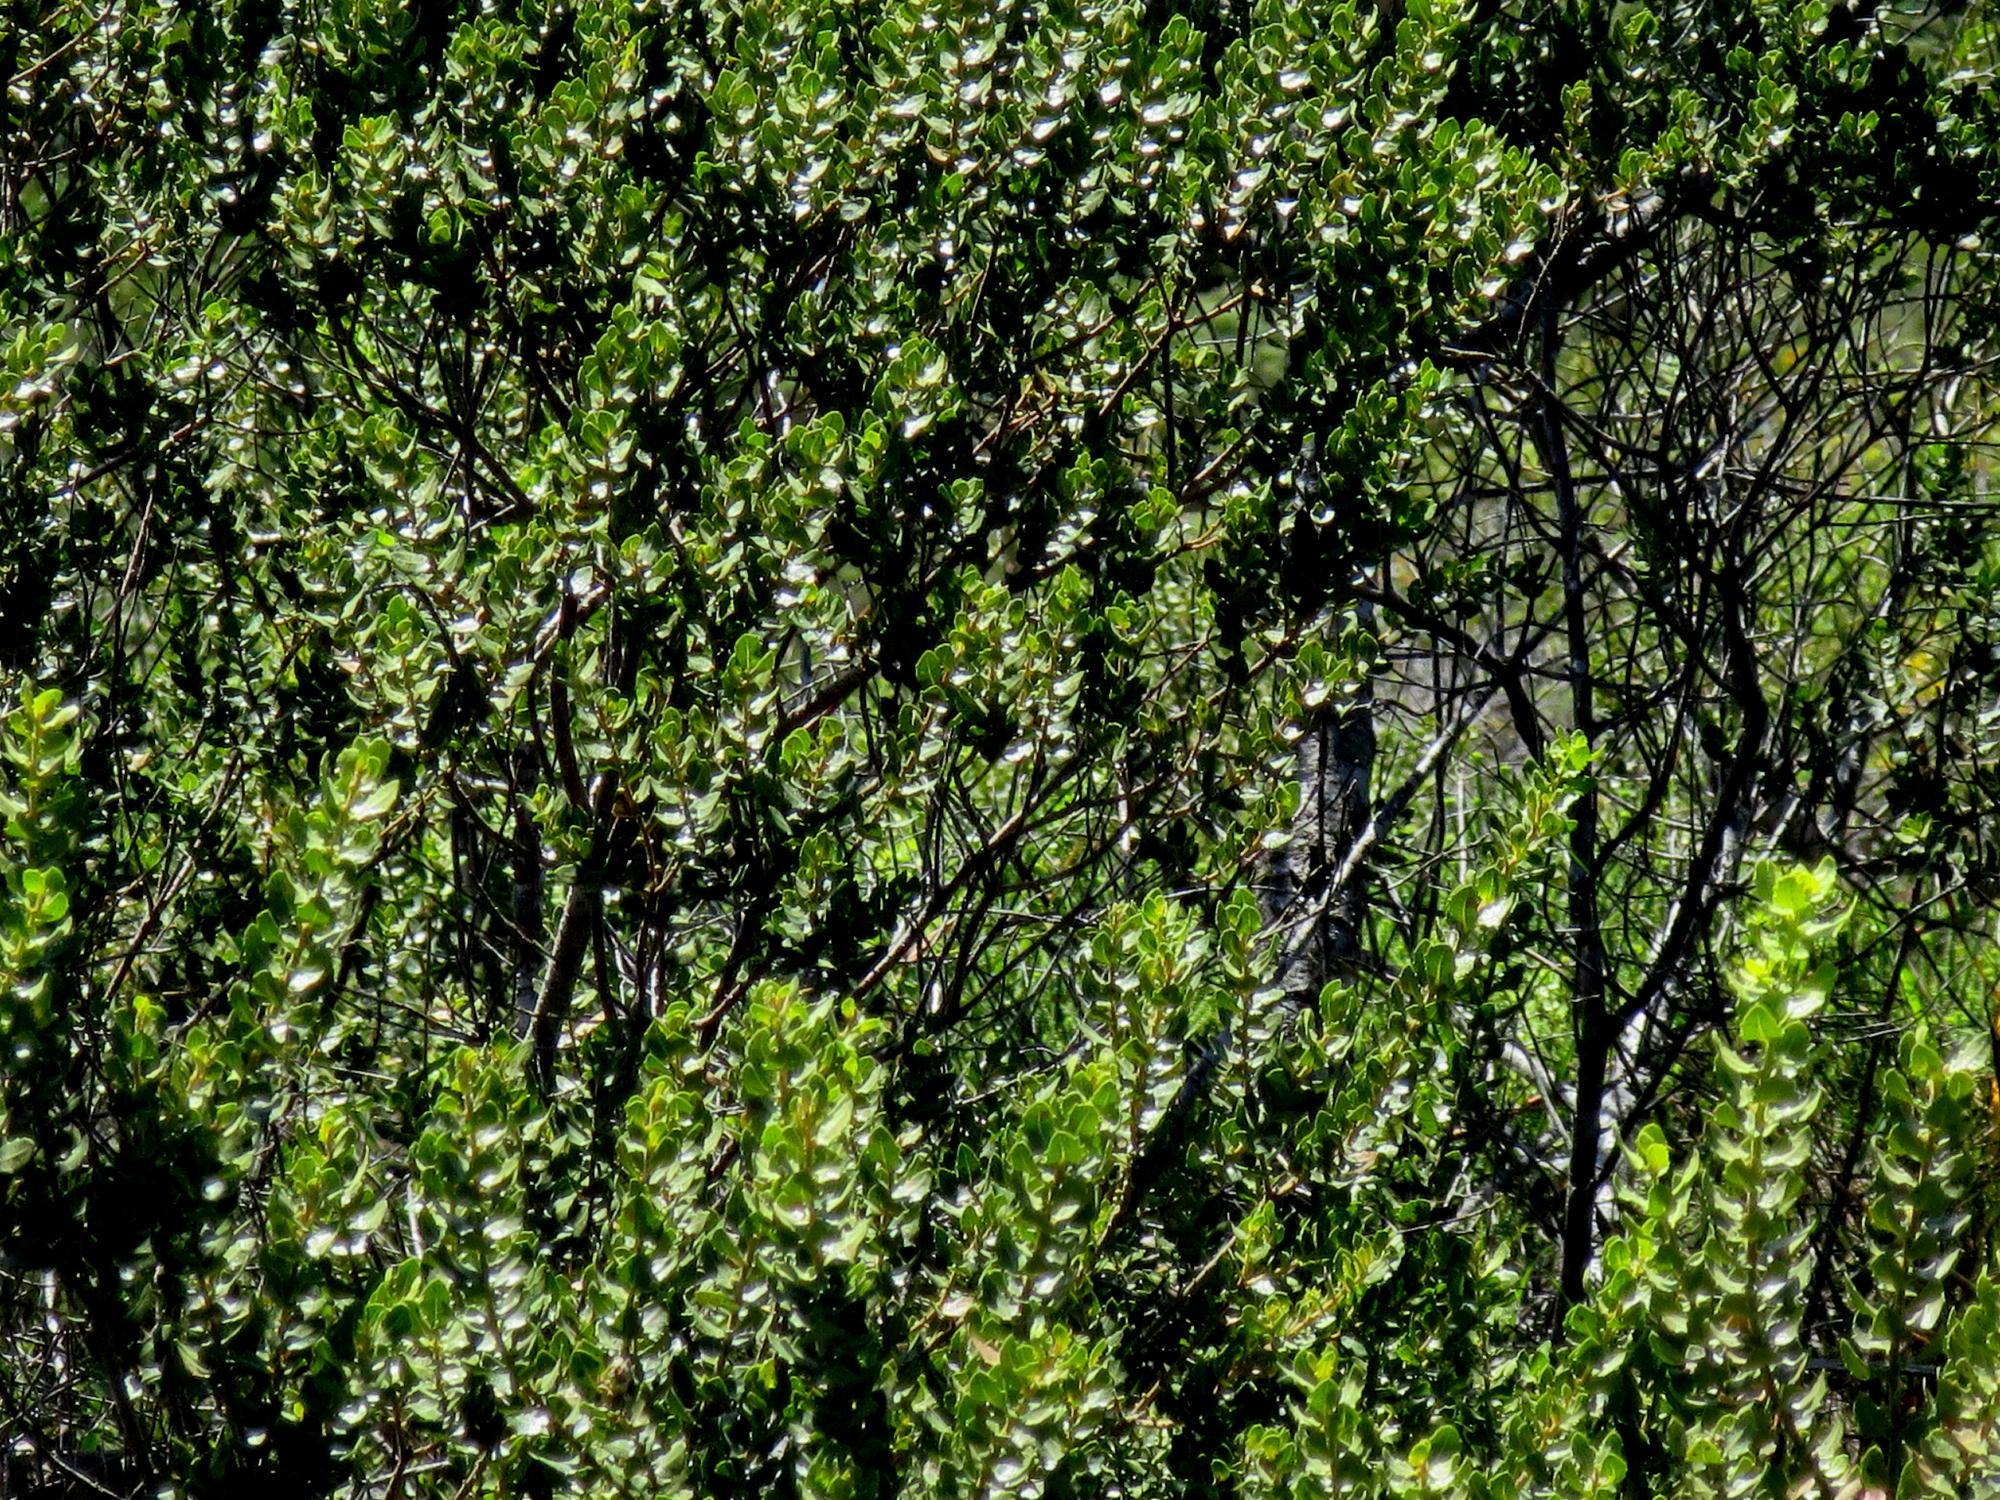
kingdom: Plantae
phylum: Tracheophyta
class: Magnoliopsida
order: Sapindales
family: Anacardiaceae
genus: Searsia
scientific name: Searsia crenata
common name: Crowberry
